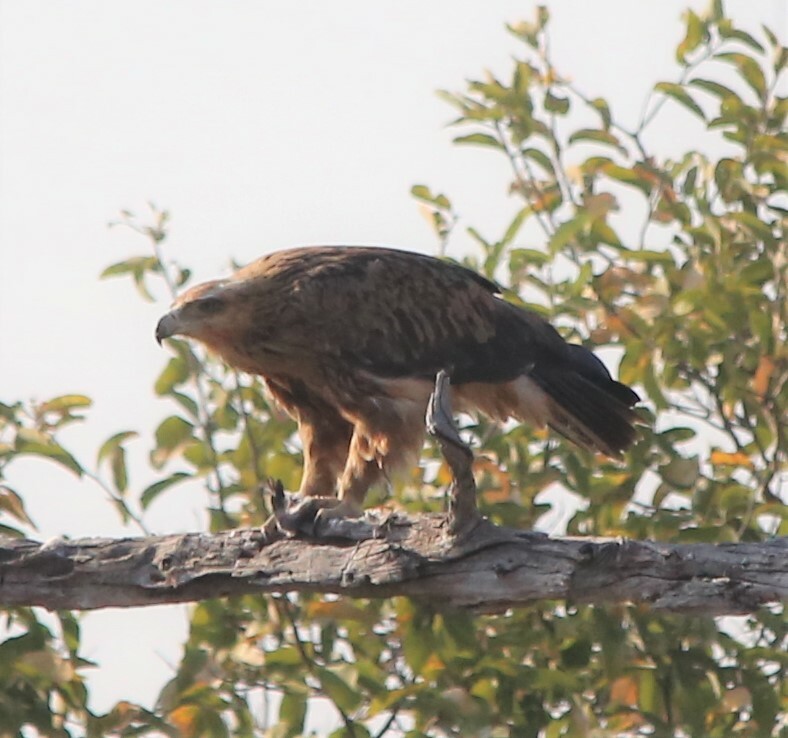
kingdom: Animalia
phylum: Chordata
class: Aves
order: Accipitriformes
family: Accipitridae
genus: Aquila
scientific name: Aquila rapax
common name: Tawny eagle
